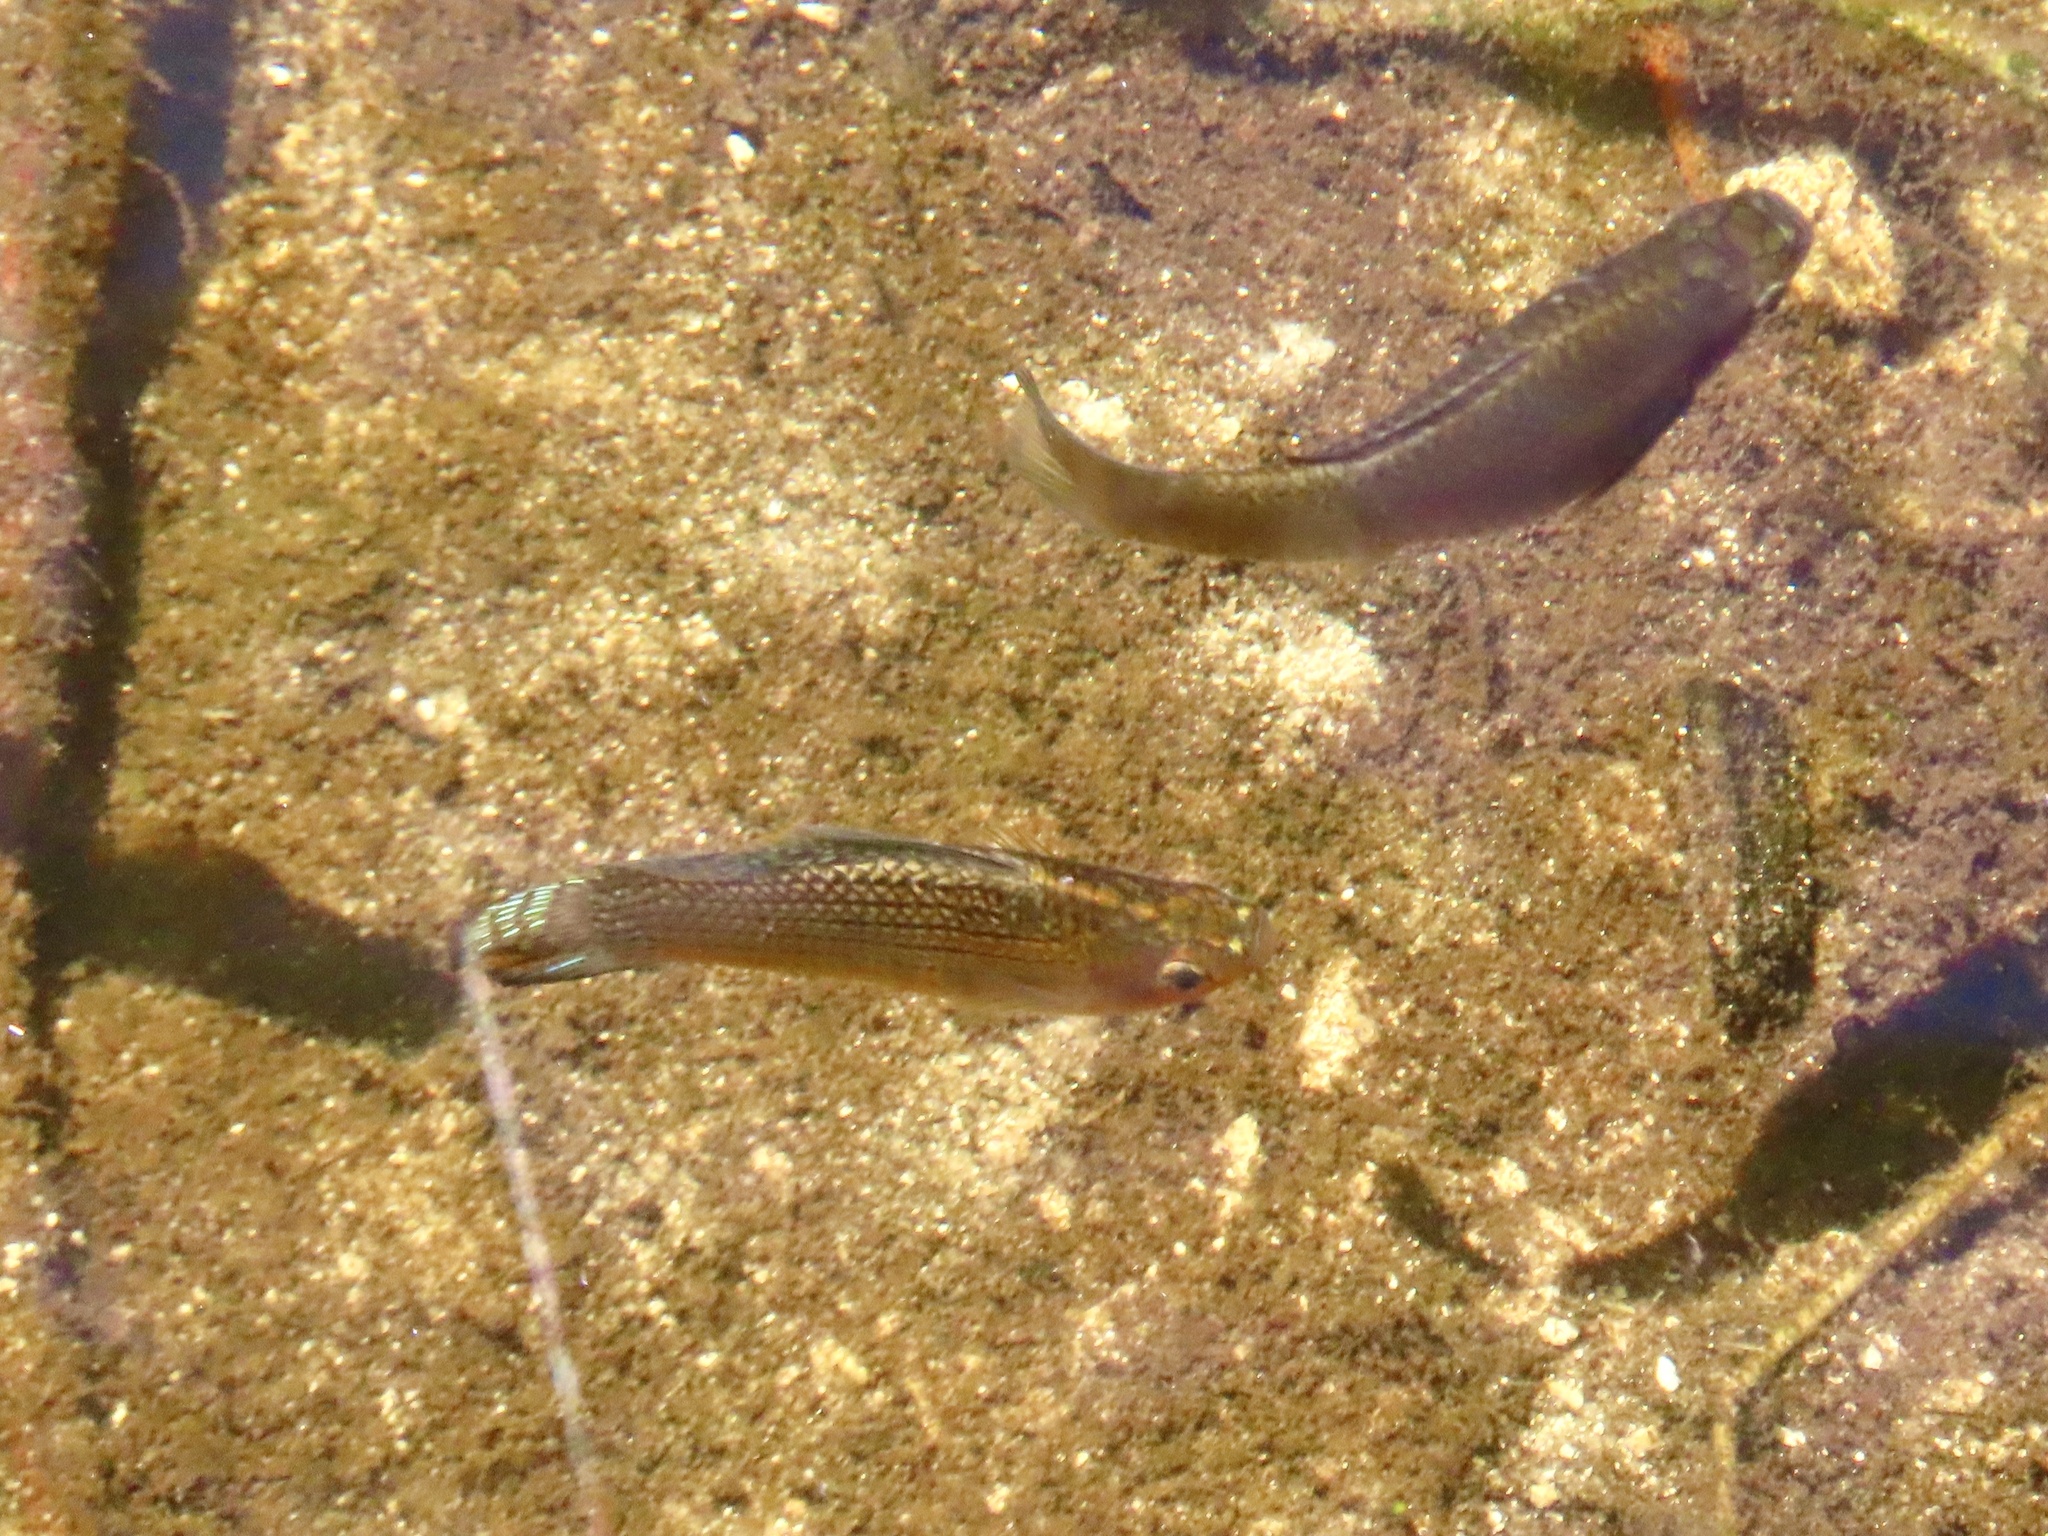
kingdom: Animalia
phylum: Chordata
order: Cyprinodontiformes
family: Poeciliidae
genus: Poecilia
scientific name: Poecilia latipinna
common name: Sailfin molly
